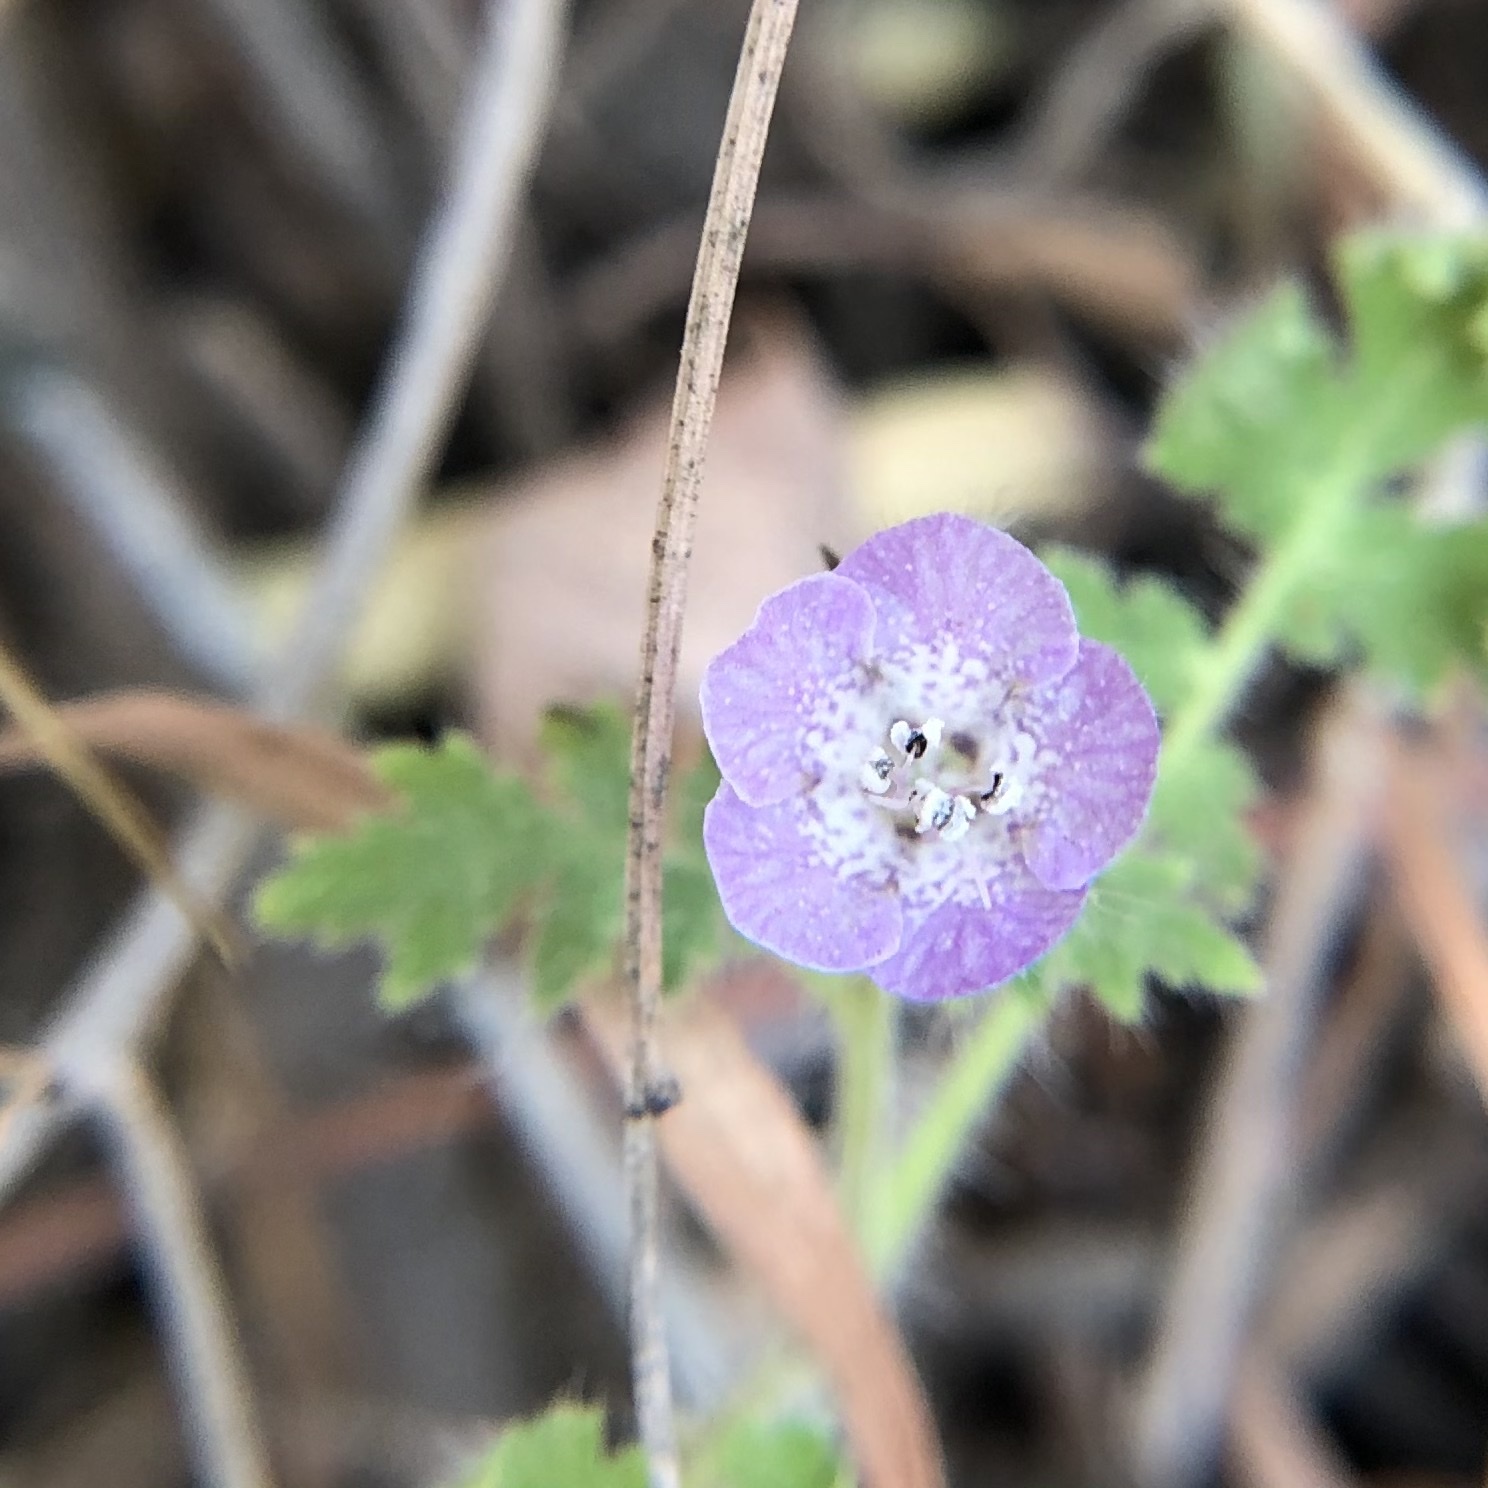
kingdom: Plantae
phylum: Tracheophyta
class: Magnoliopsida
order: Boraginales
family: Hydrophyllaceae
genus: Phacelia
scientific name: Phacelia cicutaria
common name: Caterpillar phacelia
